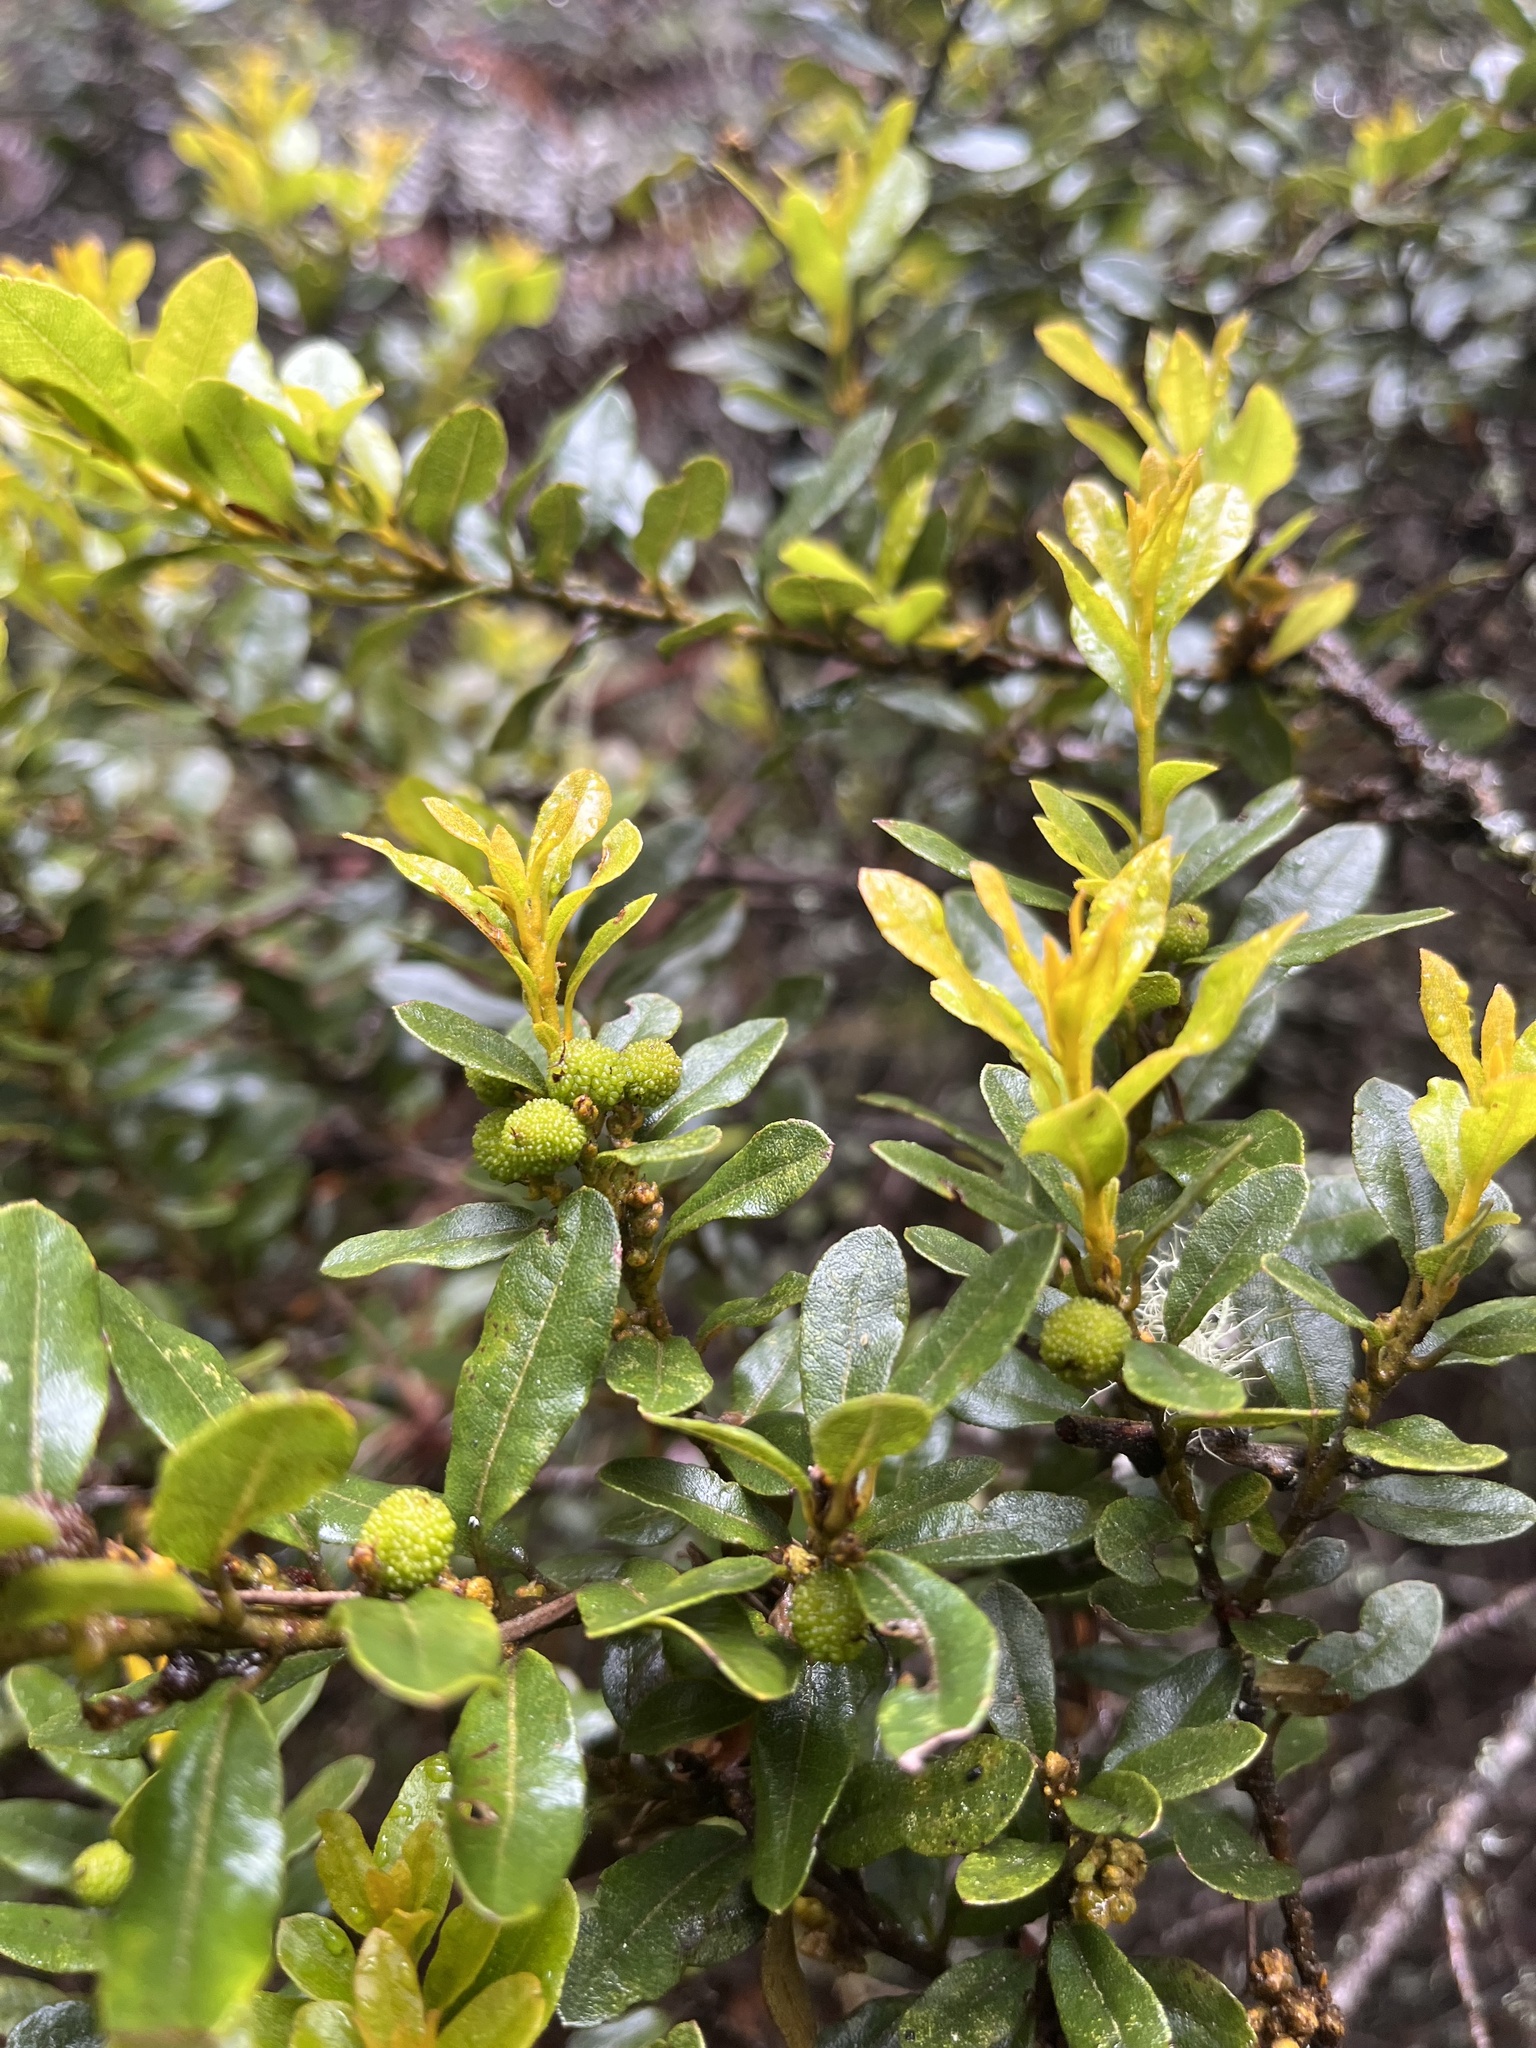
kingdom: Plantae
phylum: Tracheophyta
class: Magnoliopsida
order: Fagales
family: Myricaceae
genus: Morella
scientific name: Morella parvifolia
